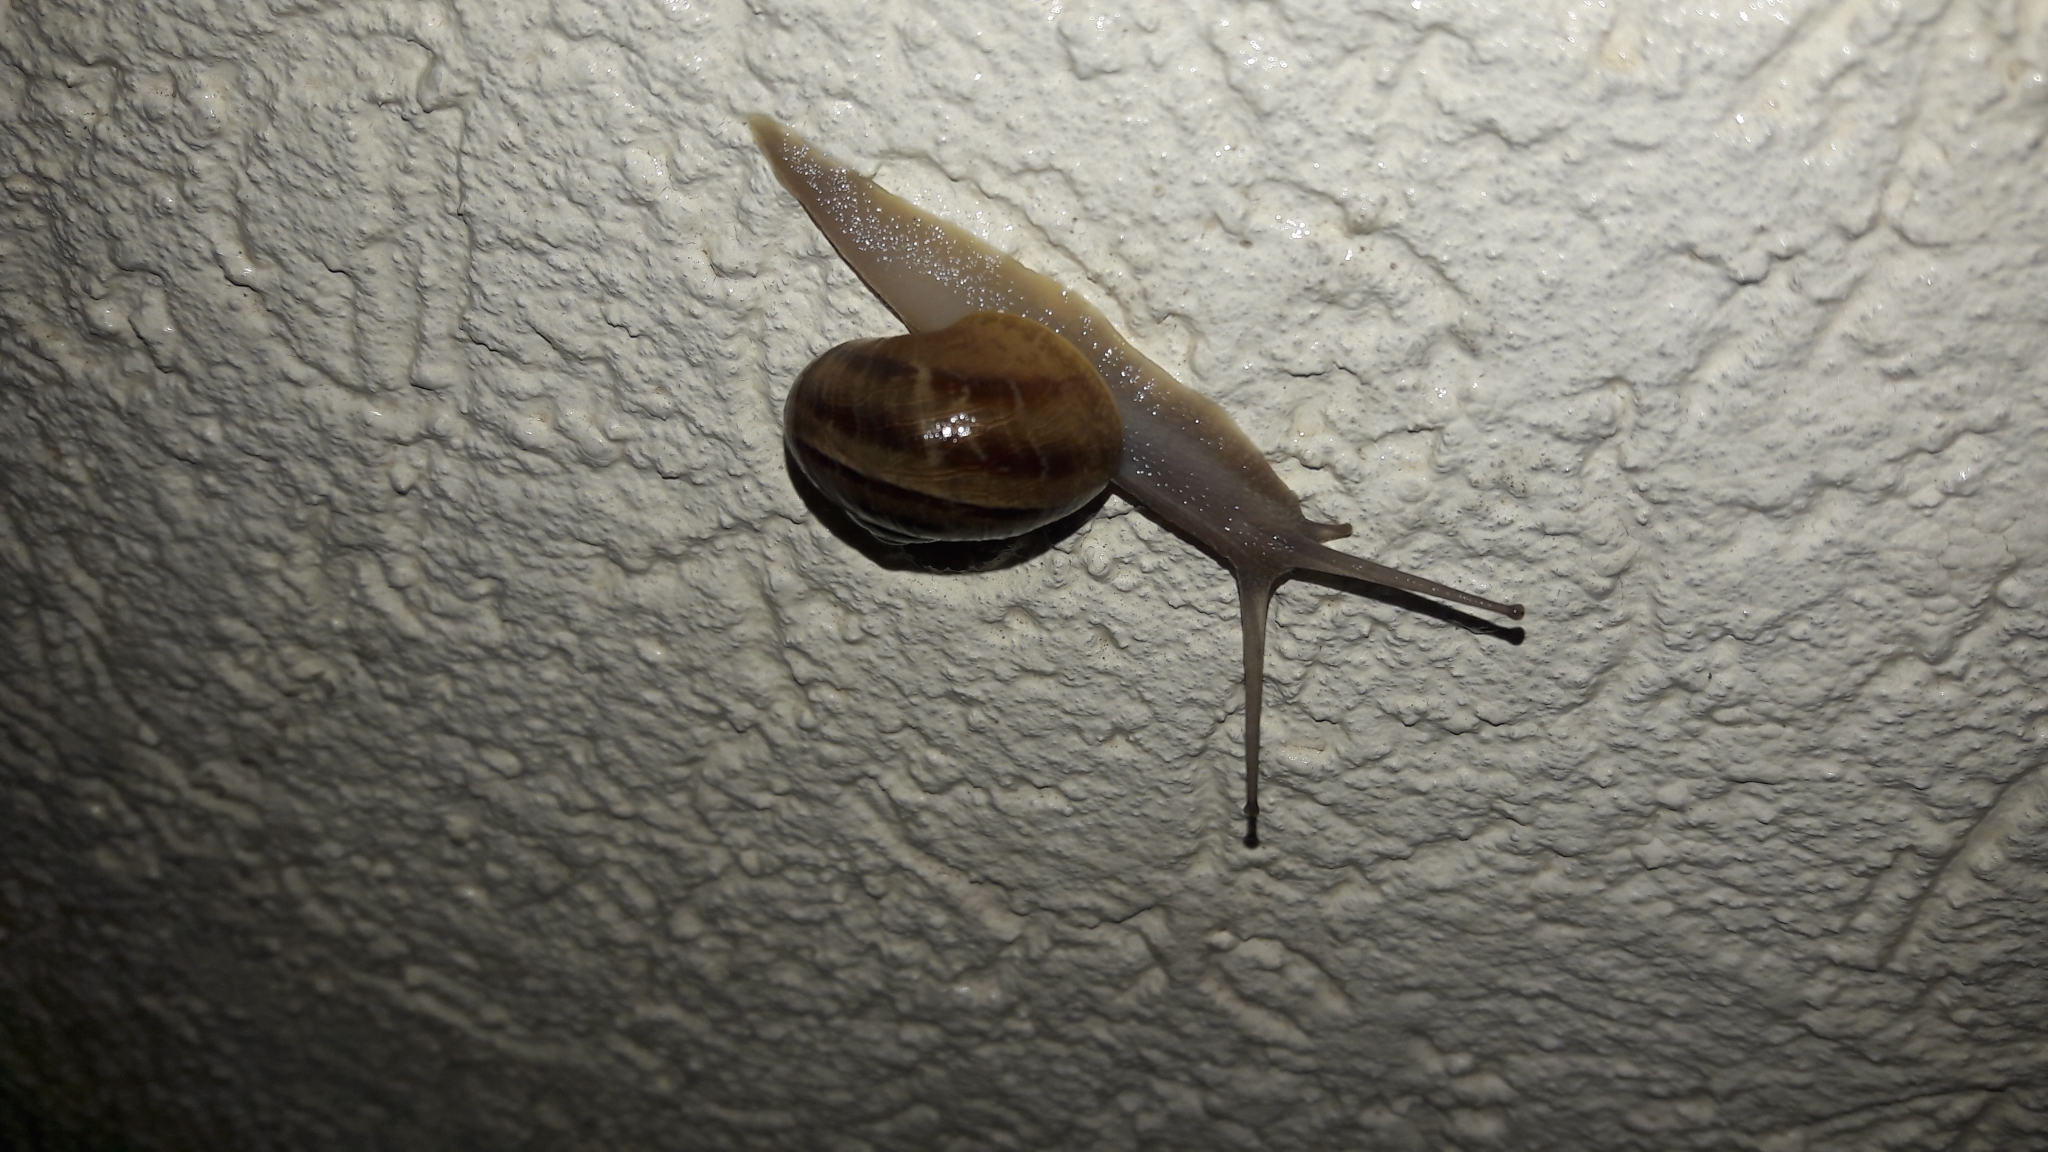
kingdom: Animalia
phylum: Mollusca
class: Gastropoda
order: Stylommatophora
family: Helicidae
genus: Cornu
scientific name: Cornu aspersum
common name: Brown garden snail
